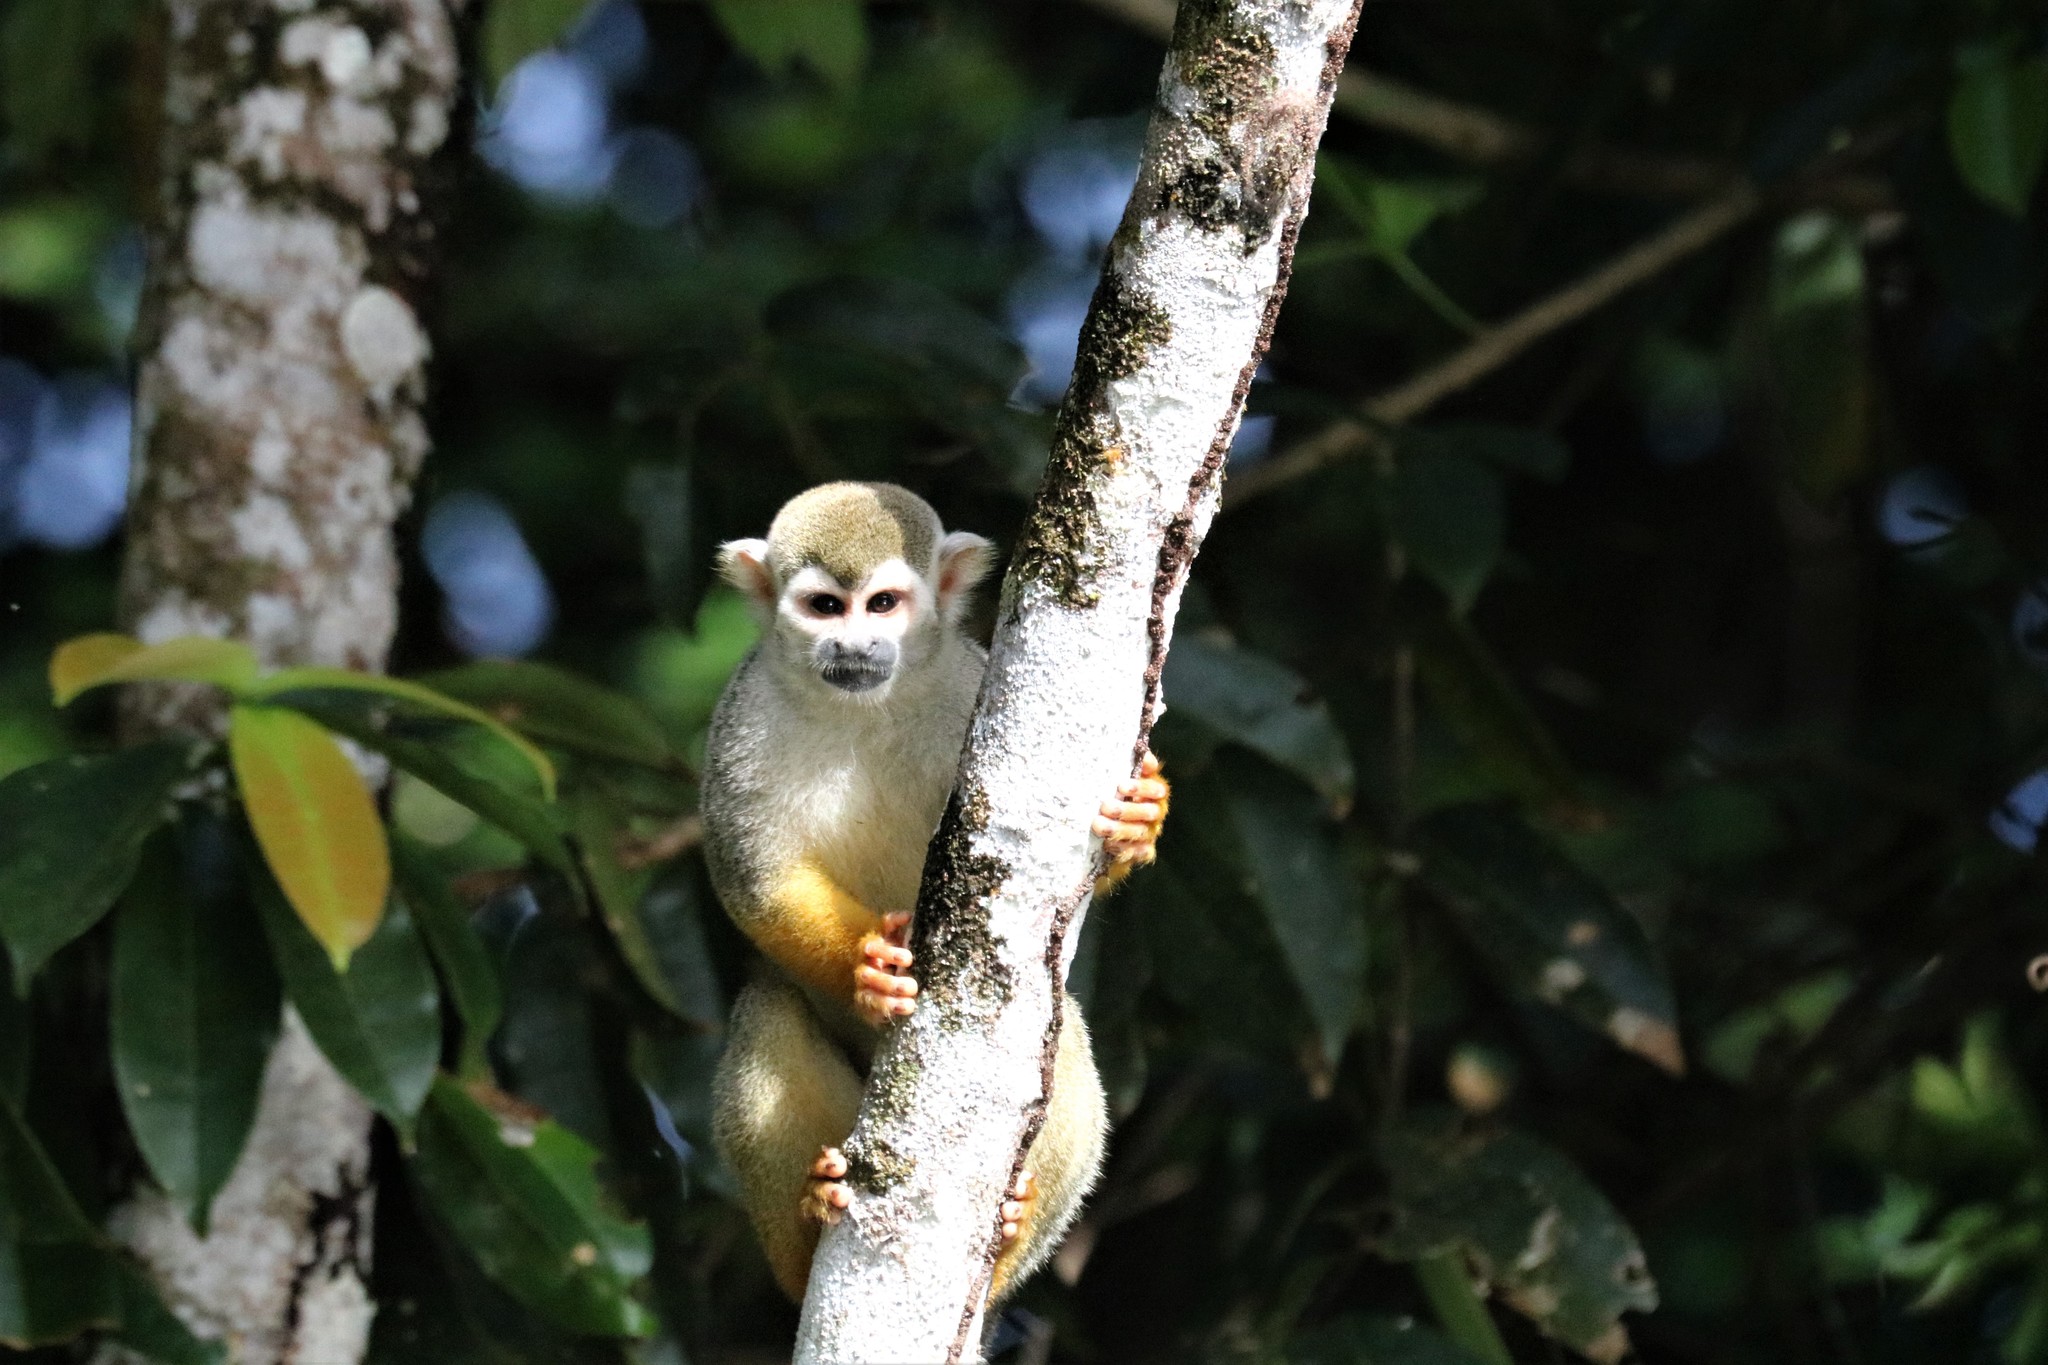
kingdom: Animalia
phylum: Chordata
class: Mammalia
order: Primates
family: Cebidae
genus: Saimiri
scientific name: Saimiri sciureus
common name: Common squirrel monkey
